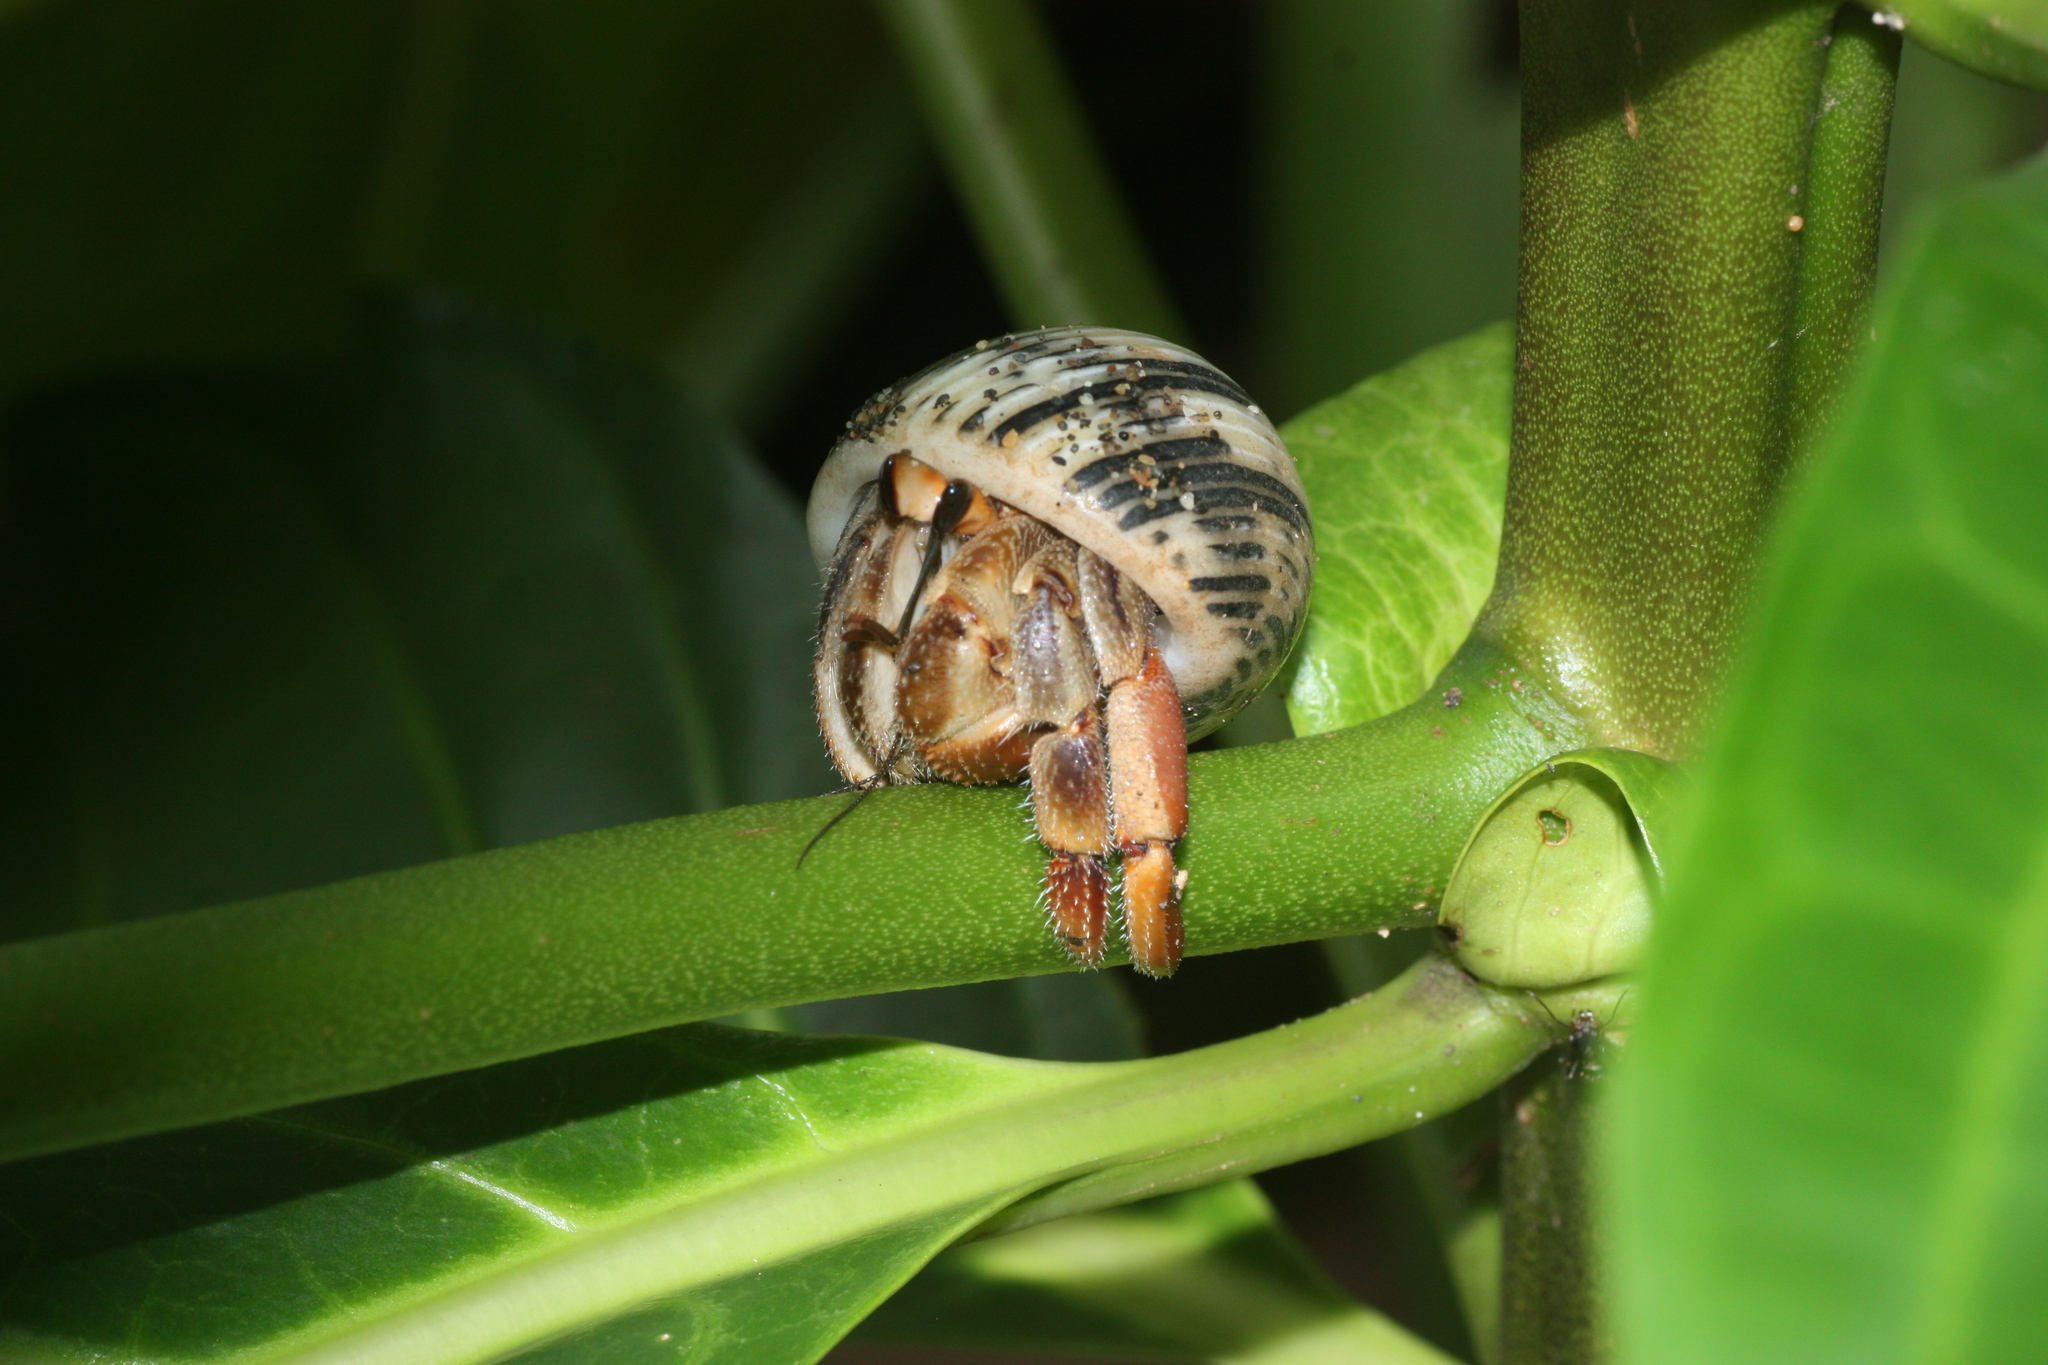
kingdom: Animalia
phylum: Arthropoda
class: Malacostraca
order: Decapoda
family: Coenobitidae
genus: Coenobita
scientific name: Coenobita compressus
